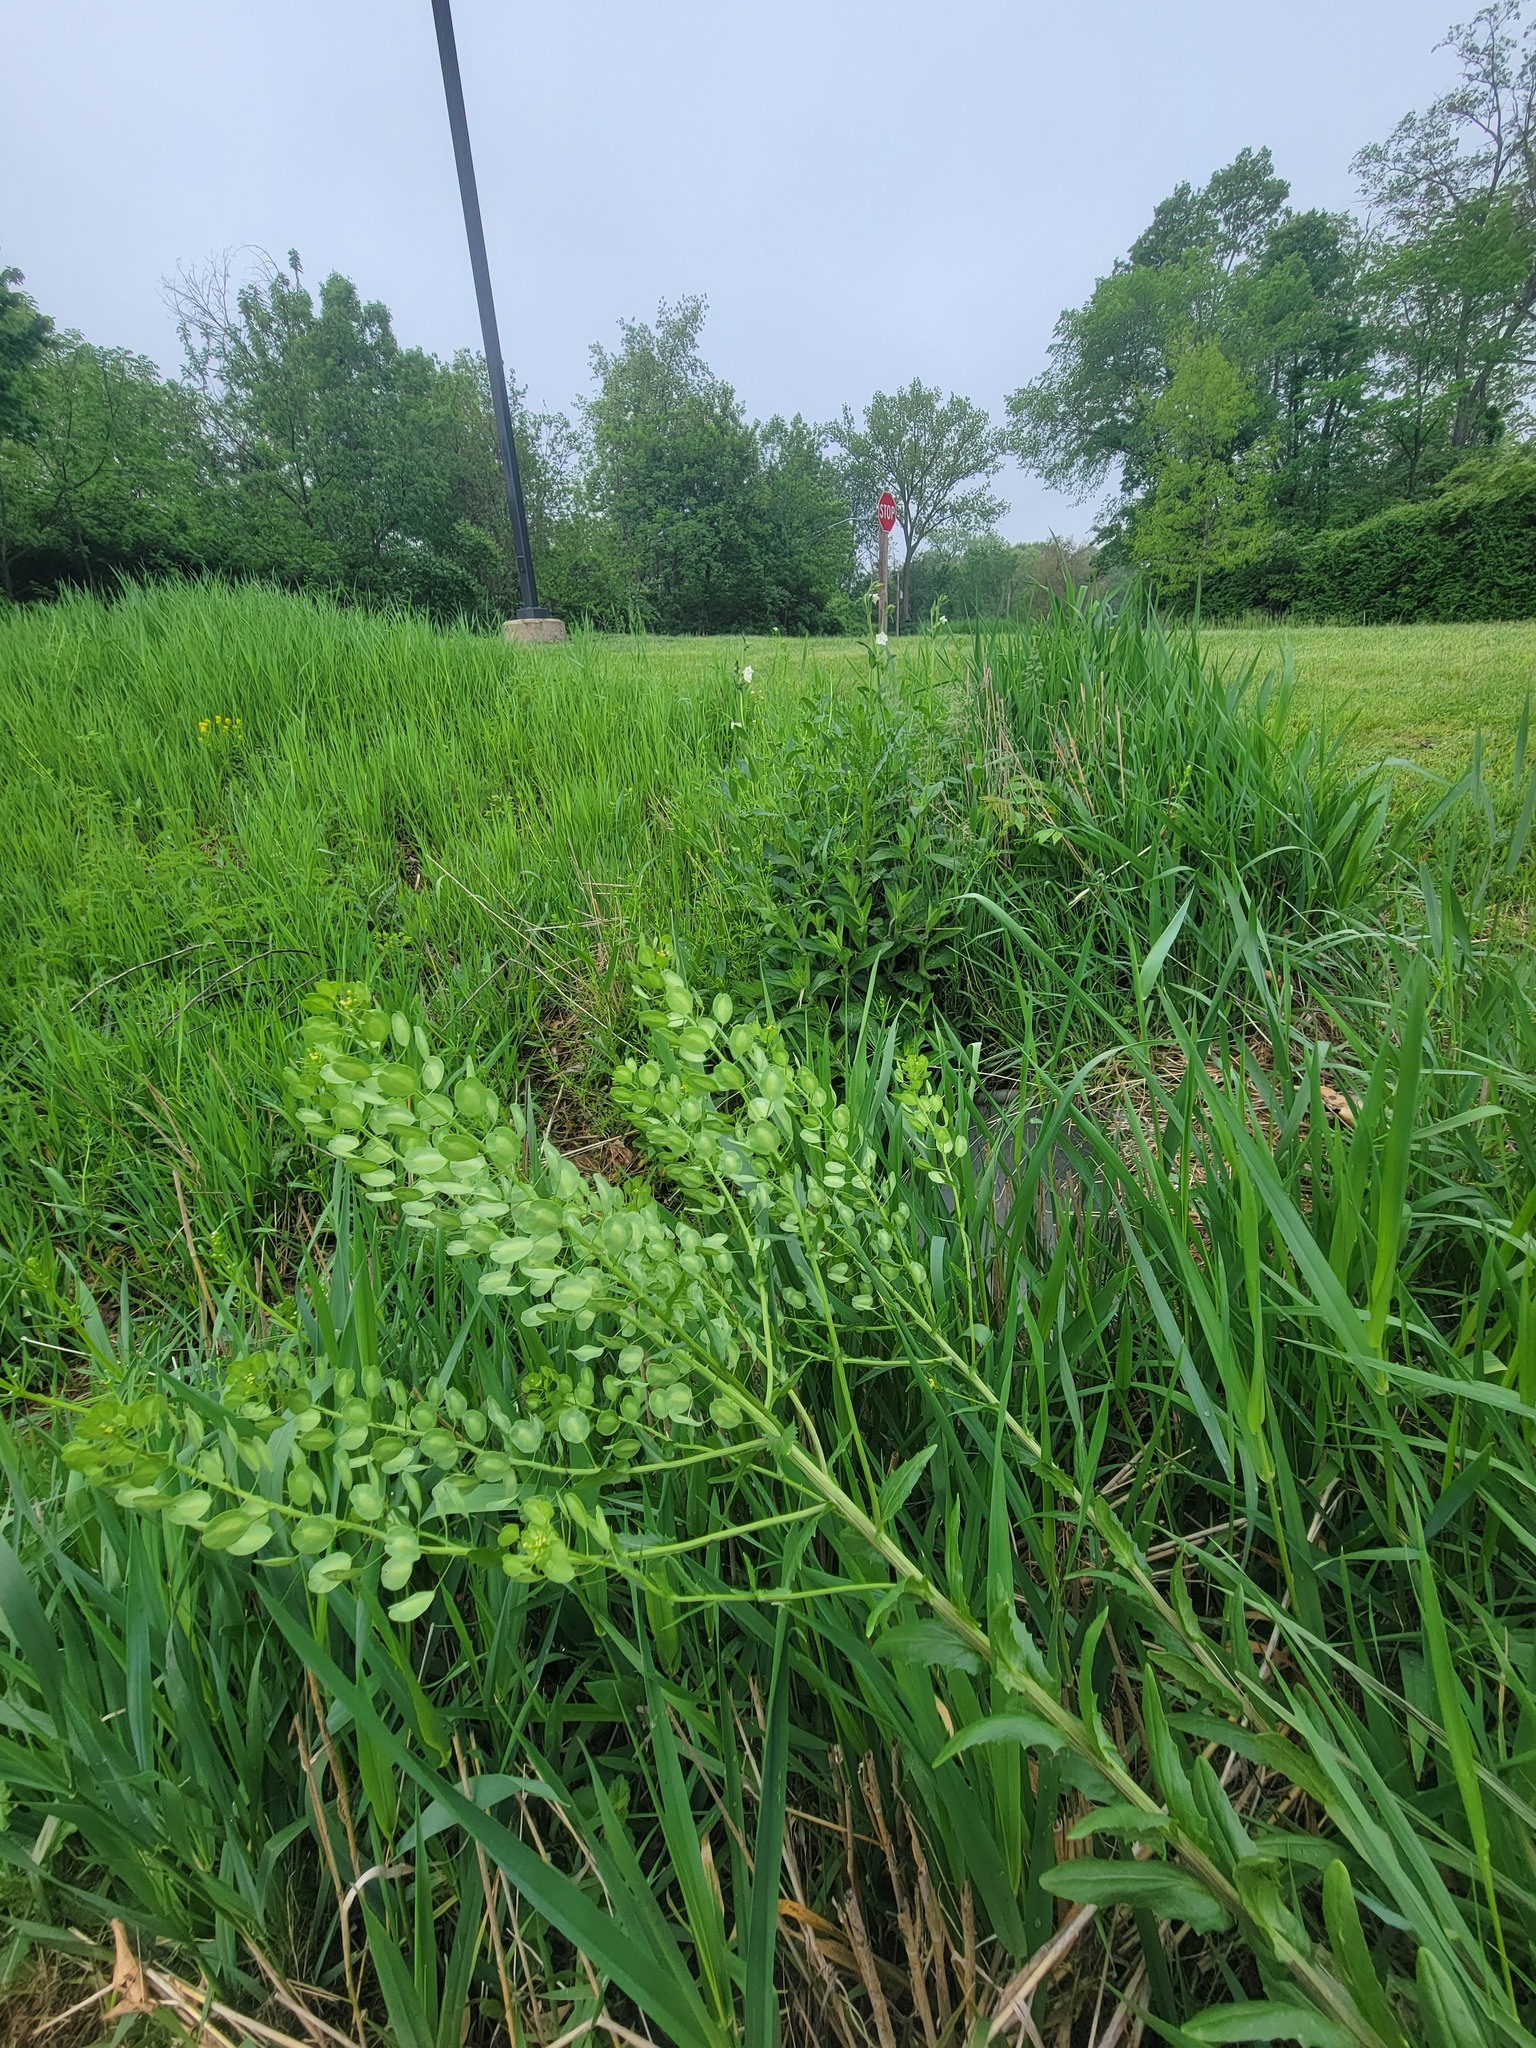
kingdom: Plantae
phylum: Tracheophyta
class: Magnoliopsida
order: Brassicales
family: Brassicaceae
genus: Thlaspi
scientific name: Thlaspi arvense
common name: Field pennycress
